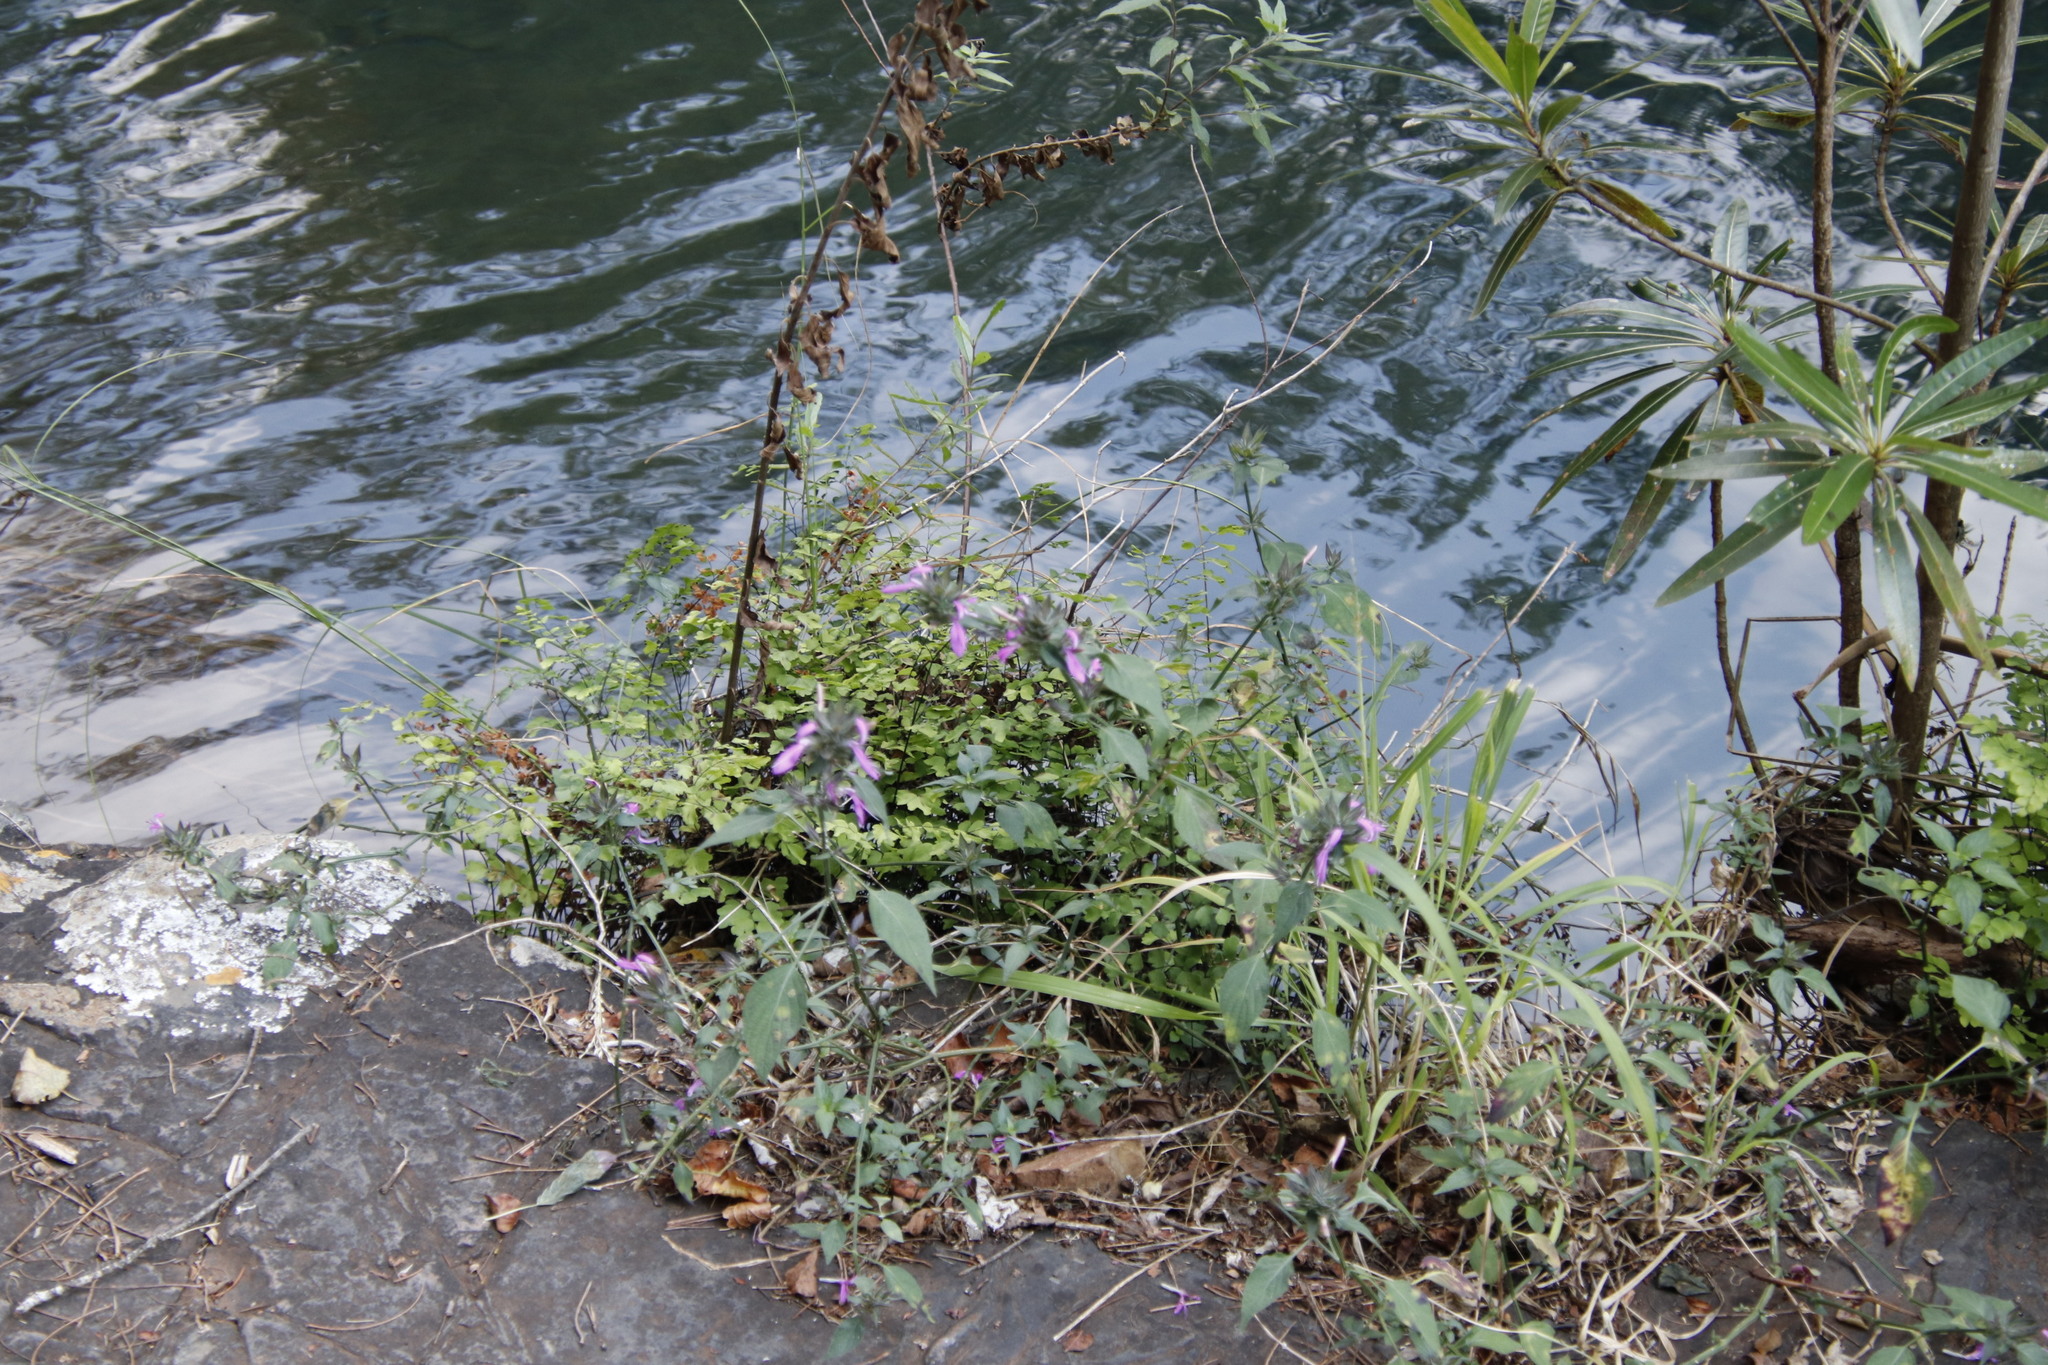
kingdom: Plantae
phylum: Tracheophyta
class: Magnoliopsida
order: Lamiales
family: Acanthaceae
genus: Dicliptera
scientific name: Dicliptera clinopodia
